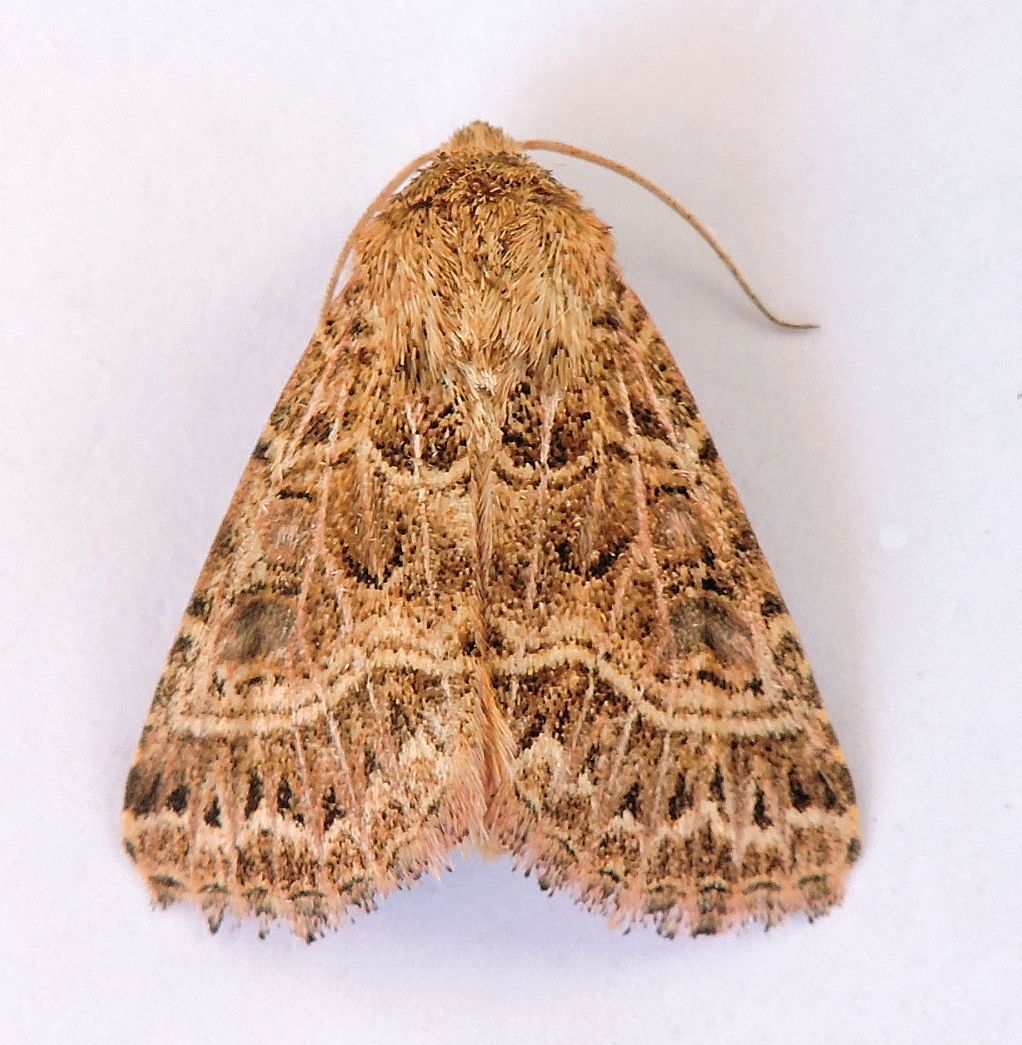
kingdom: Animalia
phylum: Arthropoda
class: Insecta
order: Lepidoptera
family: Noctuidae
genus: Schinia
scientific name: Schinia mexicana
